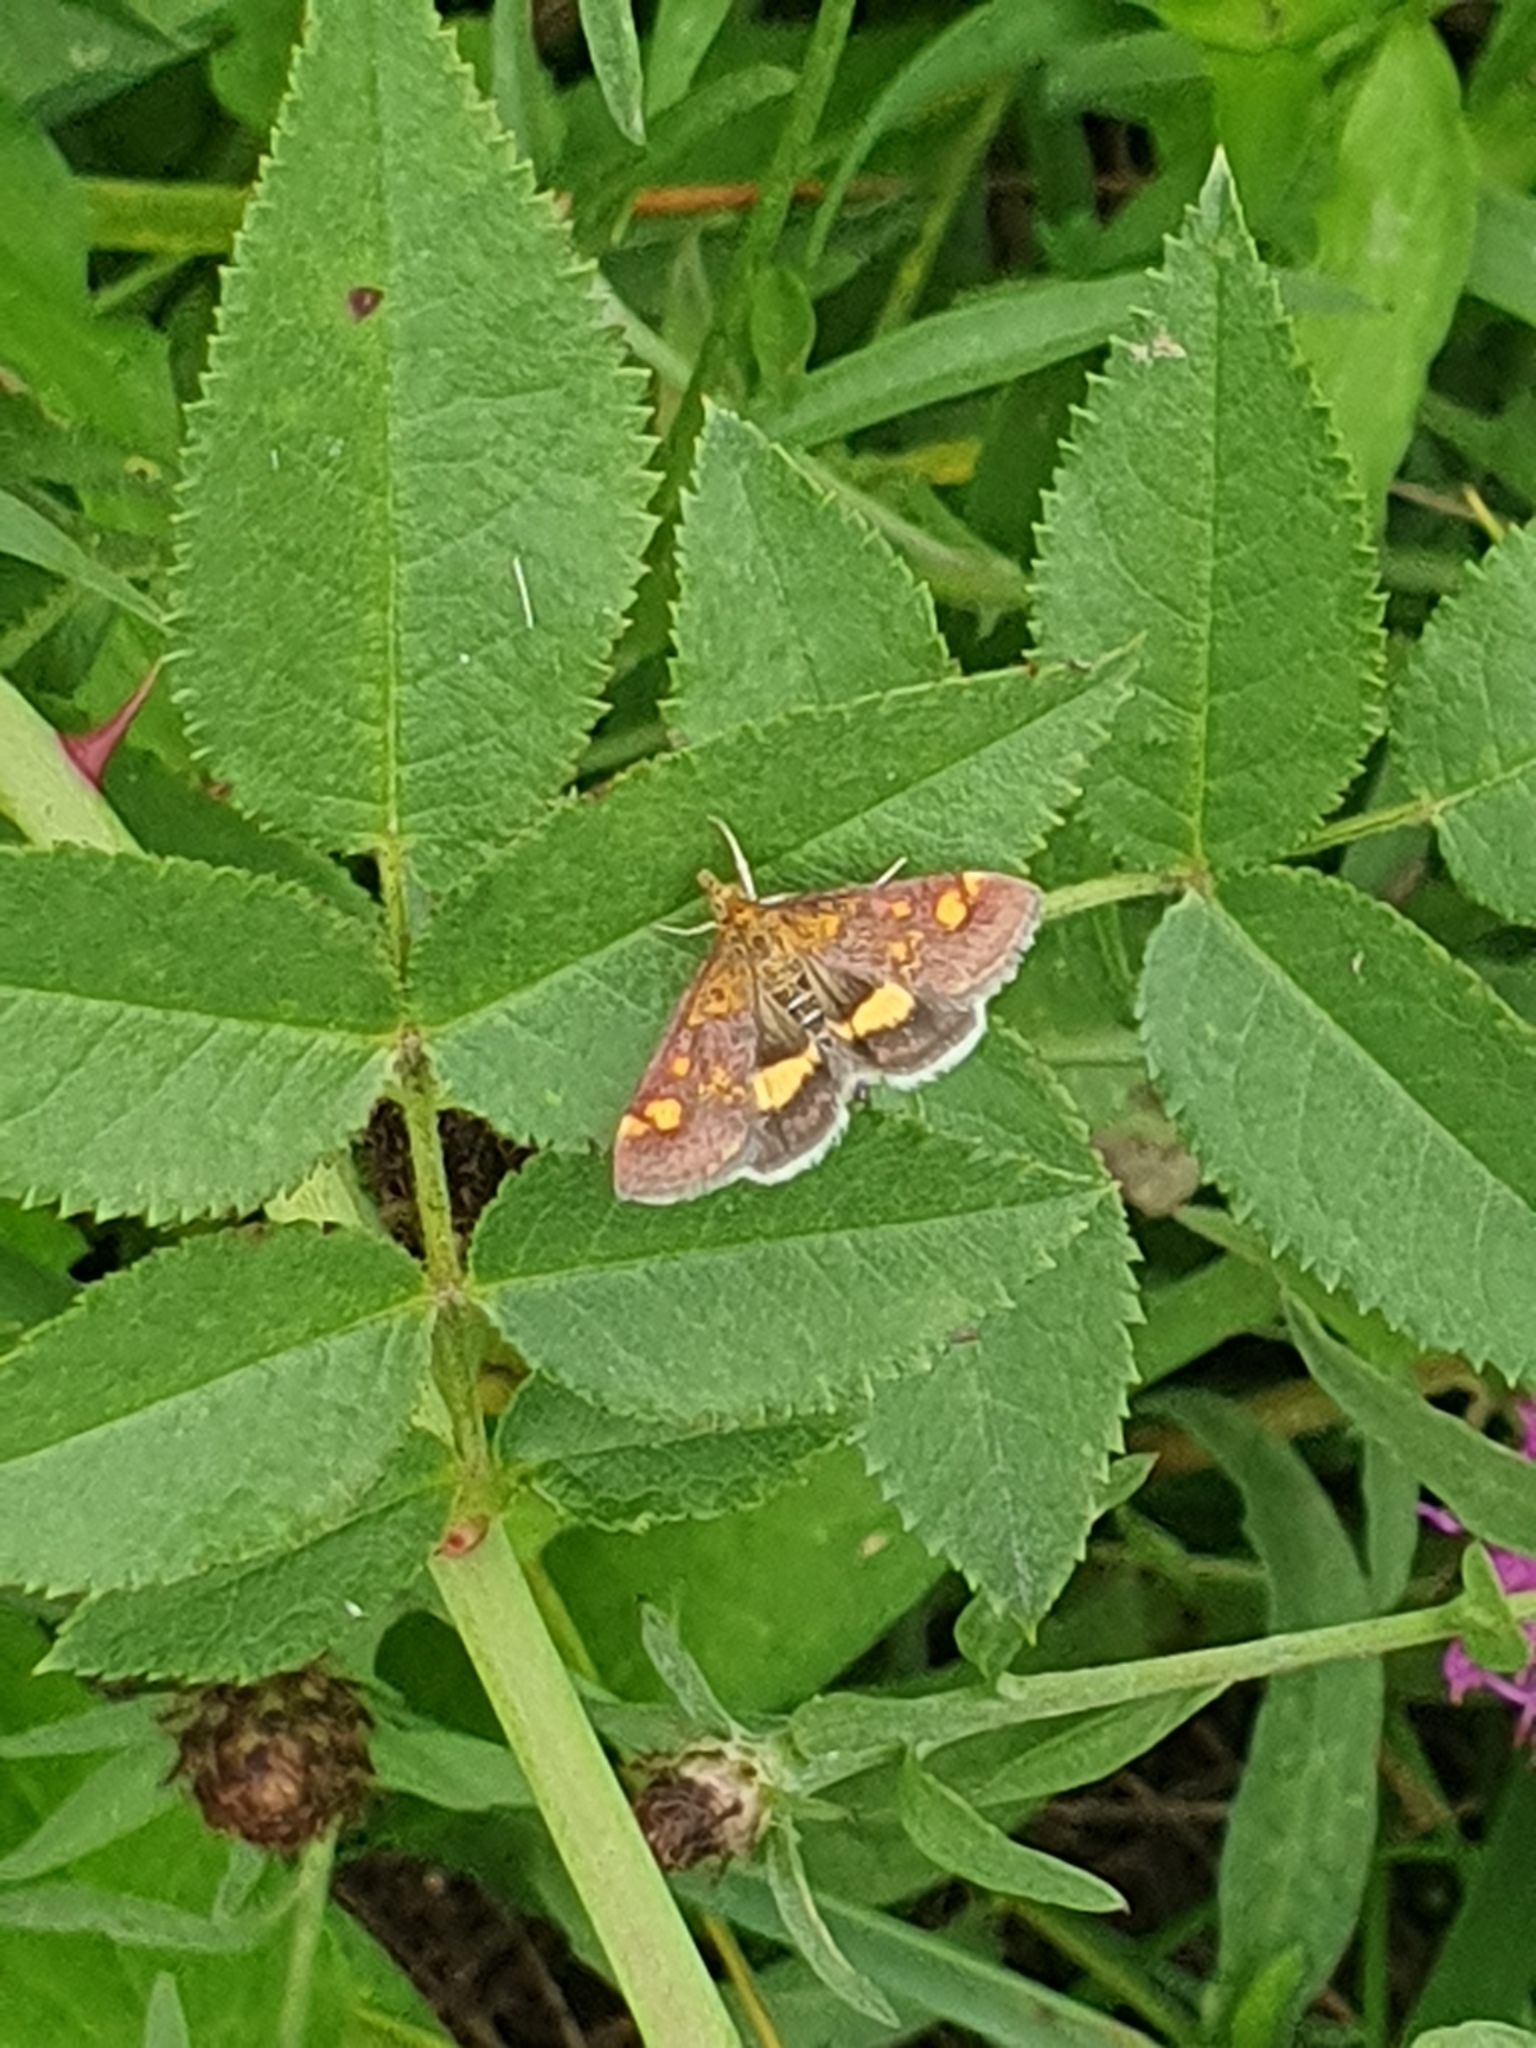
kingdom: Animalia
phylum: Arthropoda
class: Insecta
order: Lepidoptera
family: Crambidae
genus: Pyrausta
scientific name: Pyrausta aurata
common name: Small purple & gold
